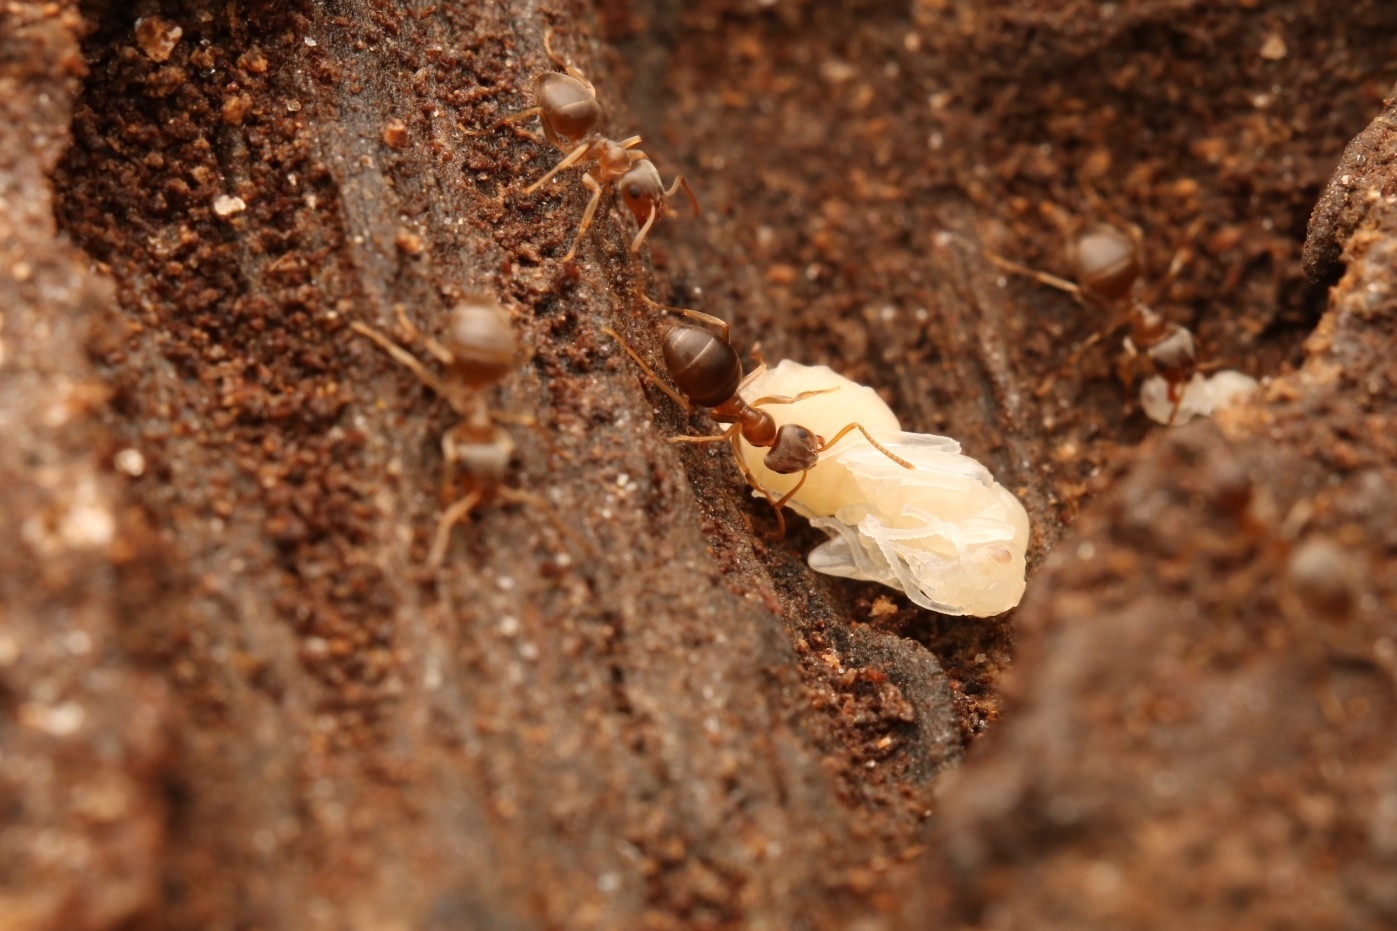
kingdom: Animalia
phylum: Arthropoda
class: Insecta
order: Hymenoptera
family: Formicidae
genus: Lasius
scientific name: Lasius americanus
